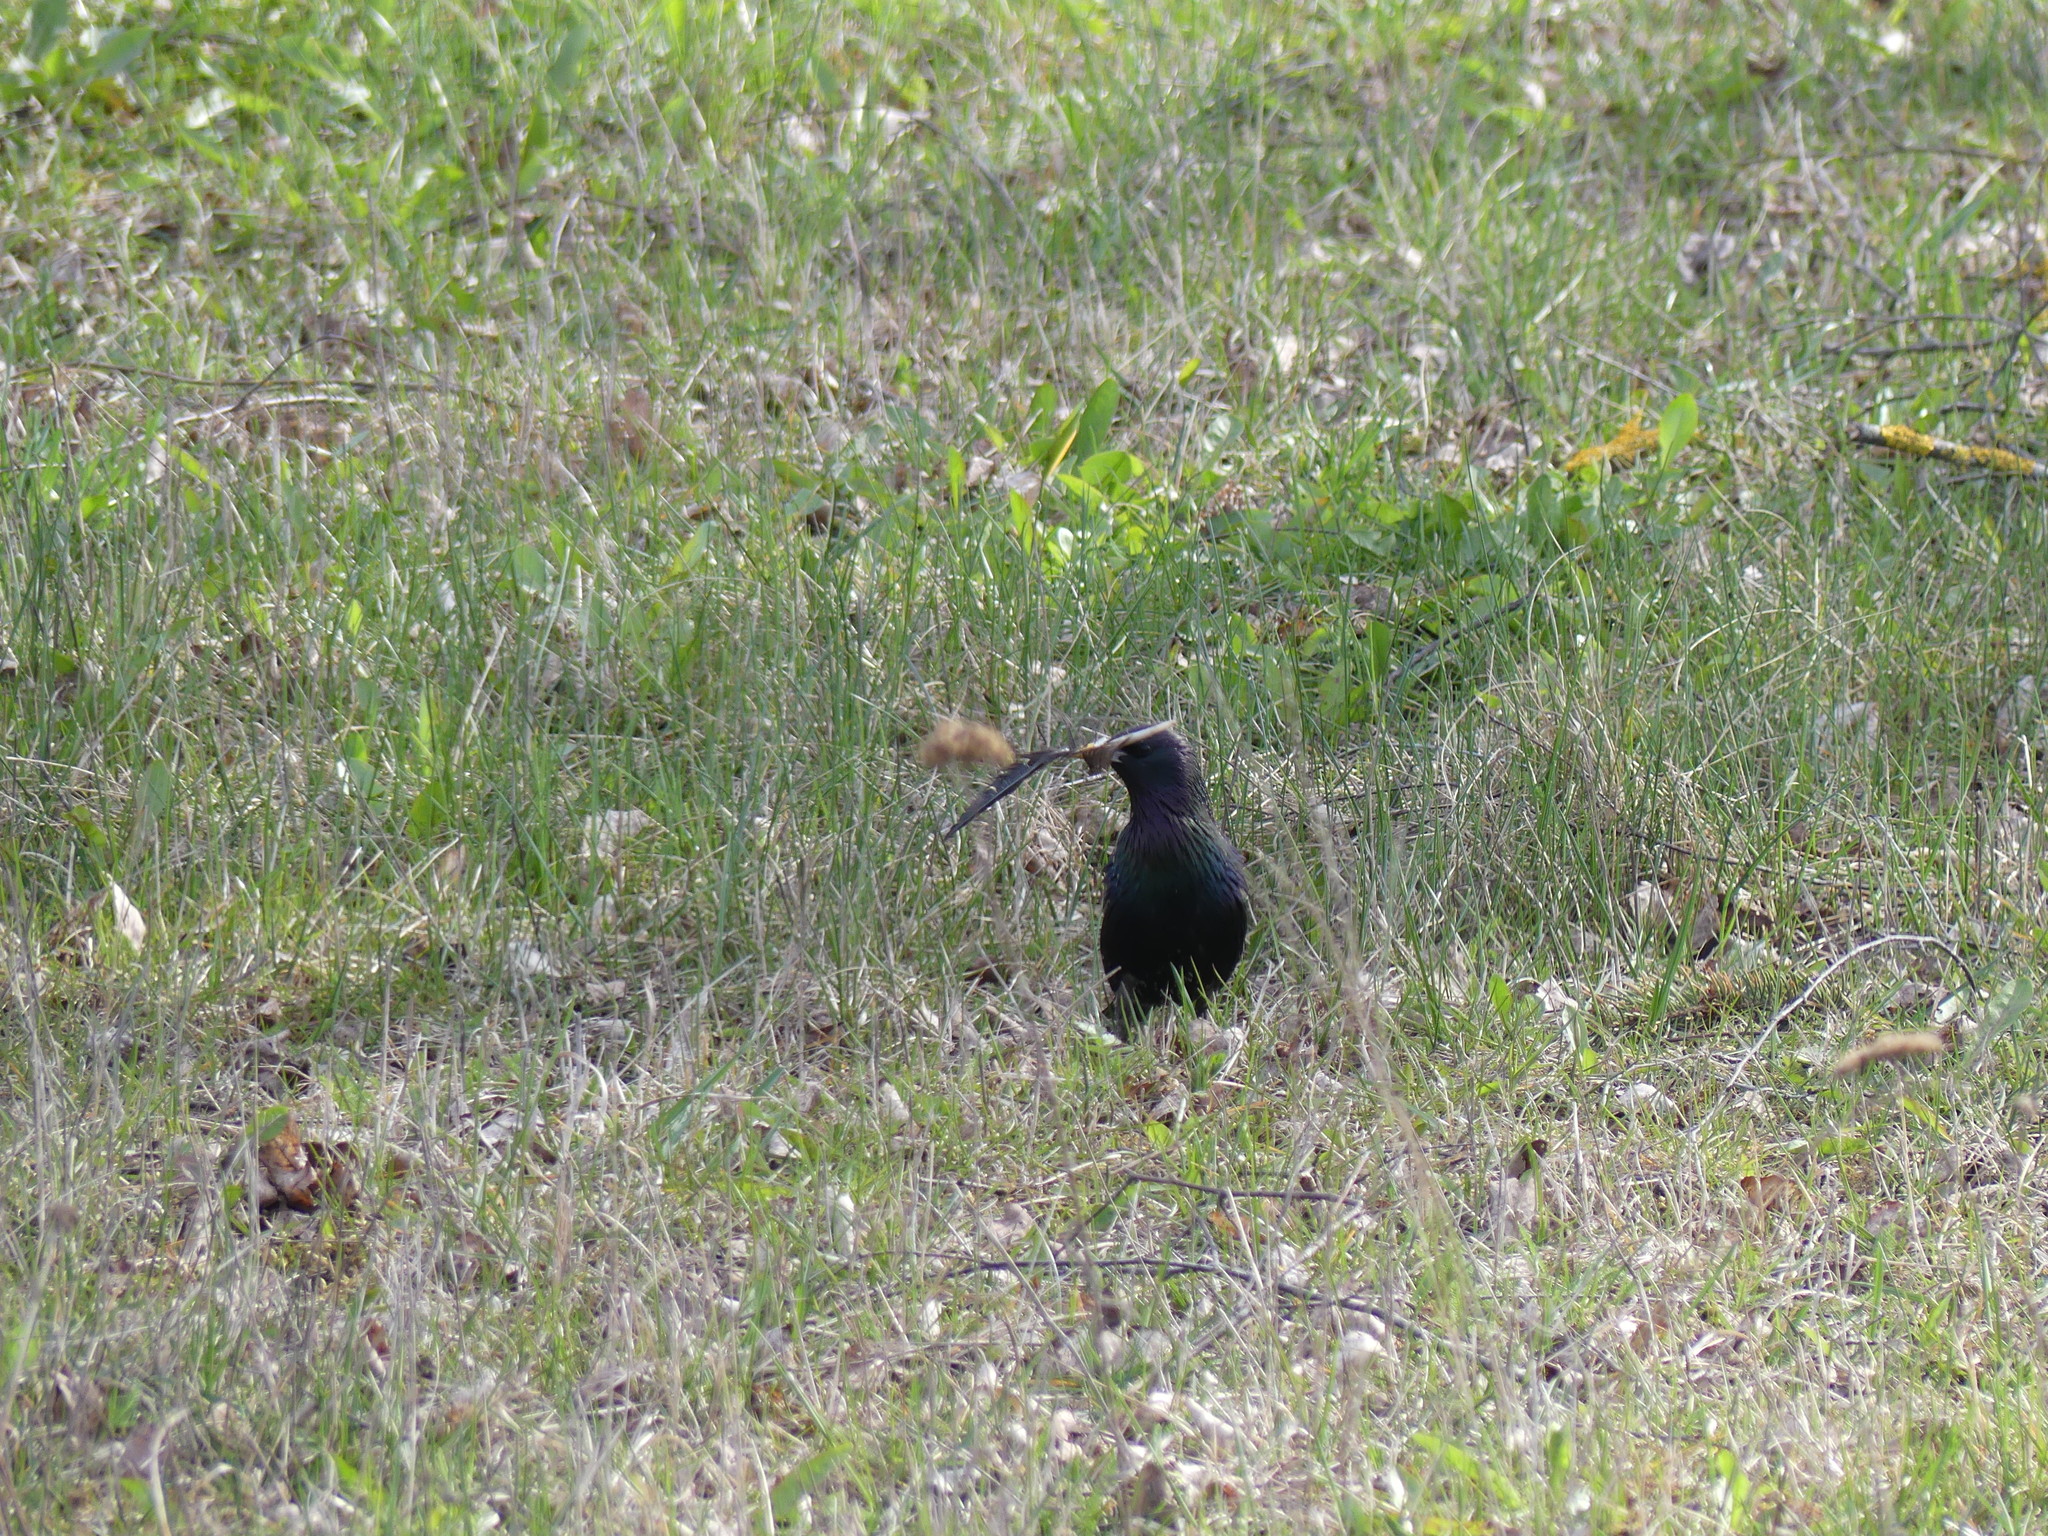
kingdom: Animalia
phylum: Chordata
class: Aves
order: Passeriformes
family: Sturnidae
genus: Sturnus
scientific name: Sturnus vulgaris
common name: Common starling
